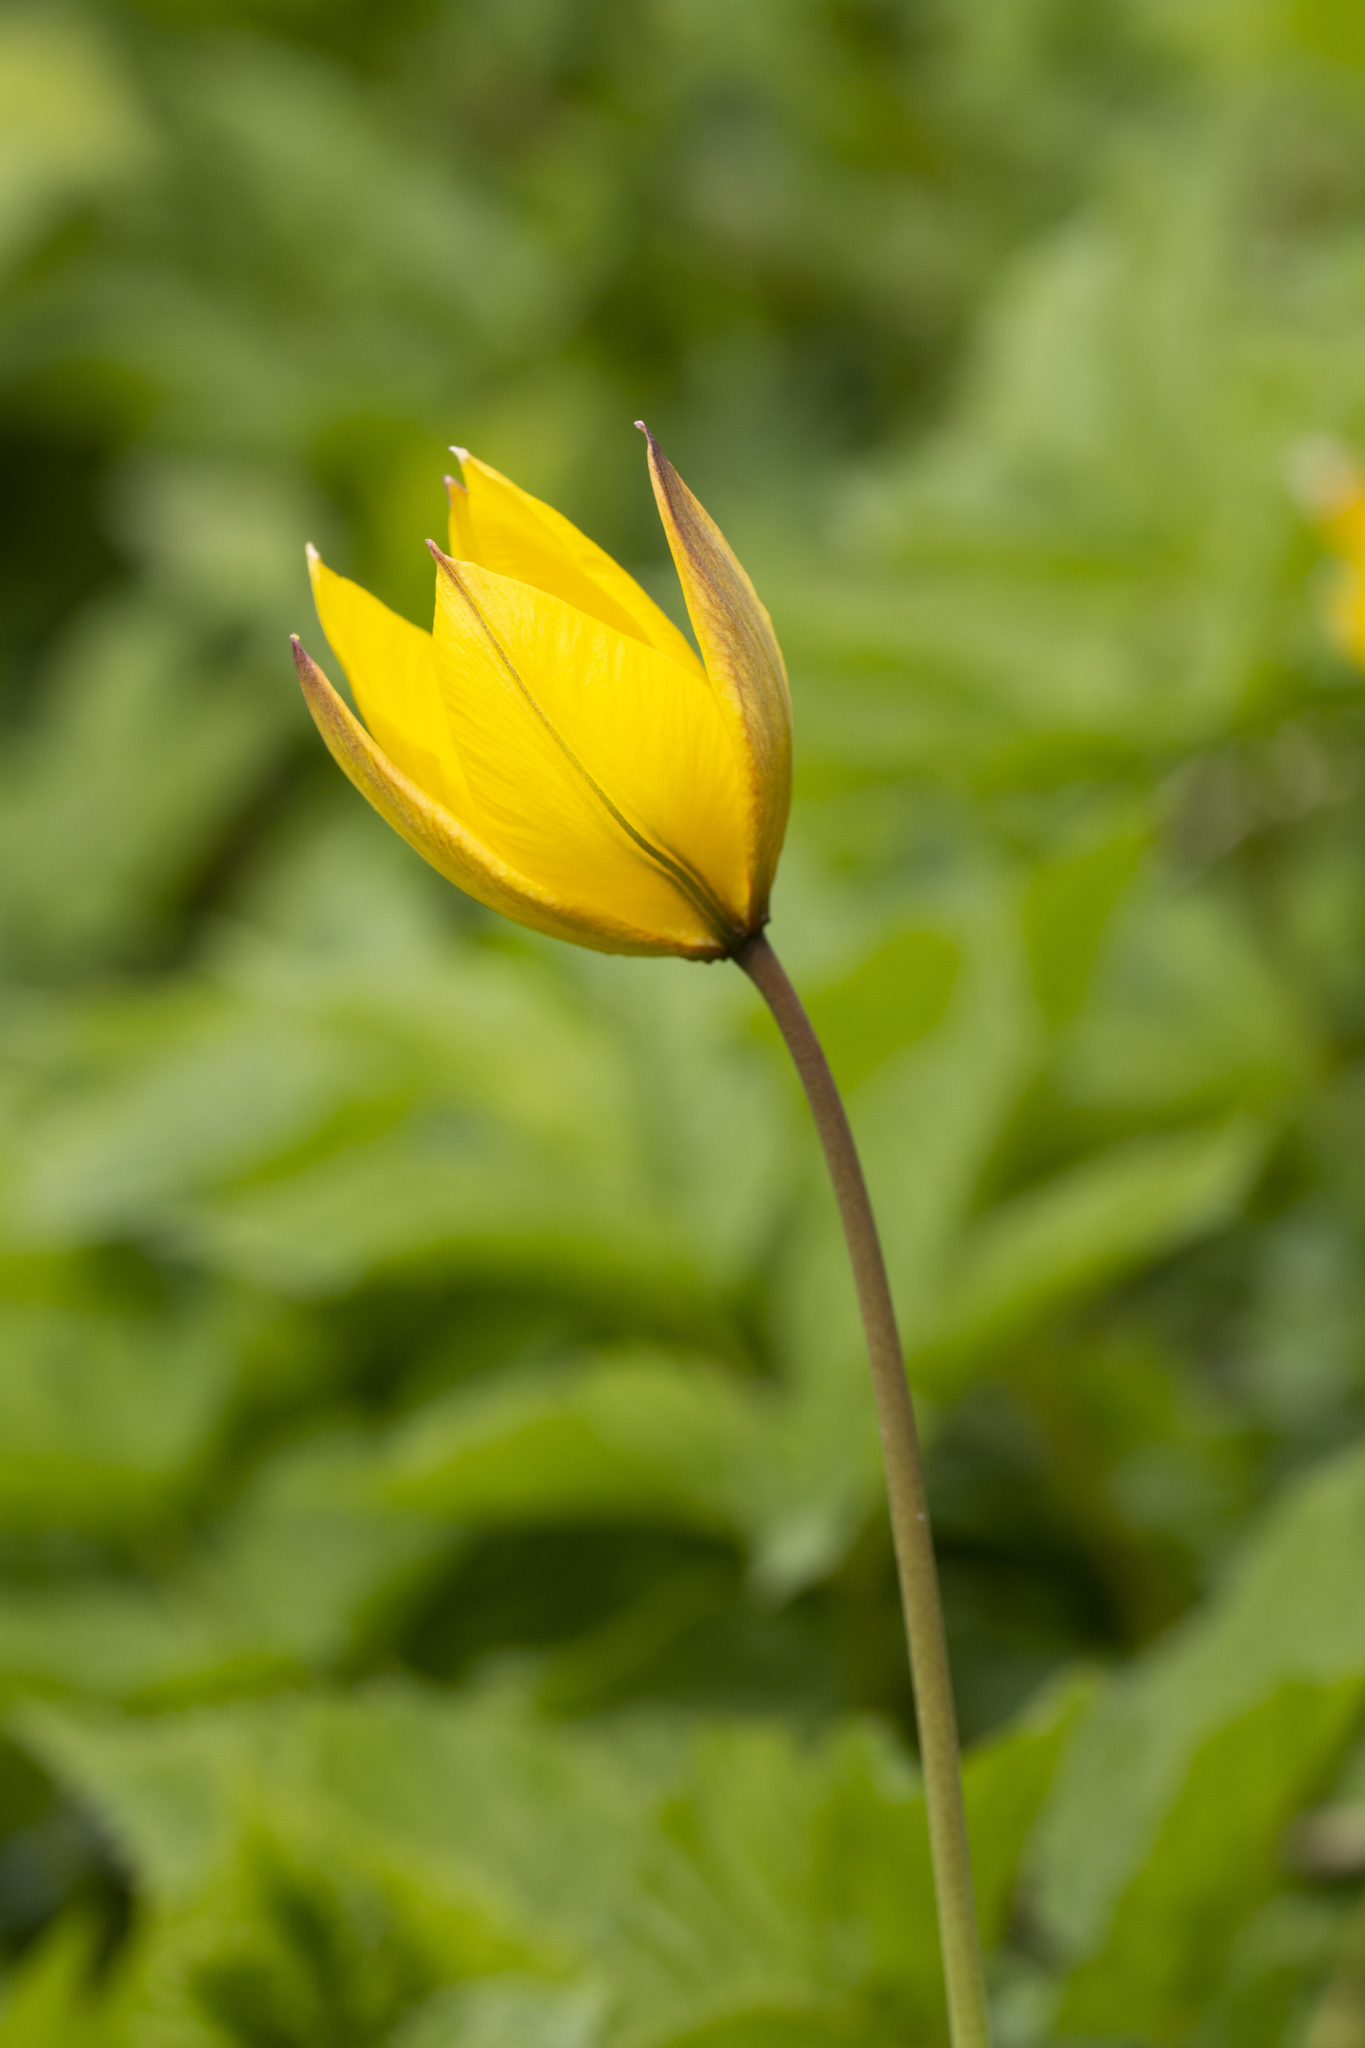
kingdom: Plantae
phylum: Tracheophyta
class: Liliopsida
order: Liliales
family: Liliaceae
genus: Tulipa
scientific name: Tulipa sylvestris
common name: Wild tulip
